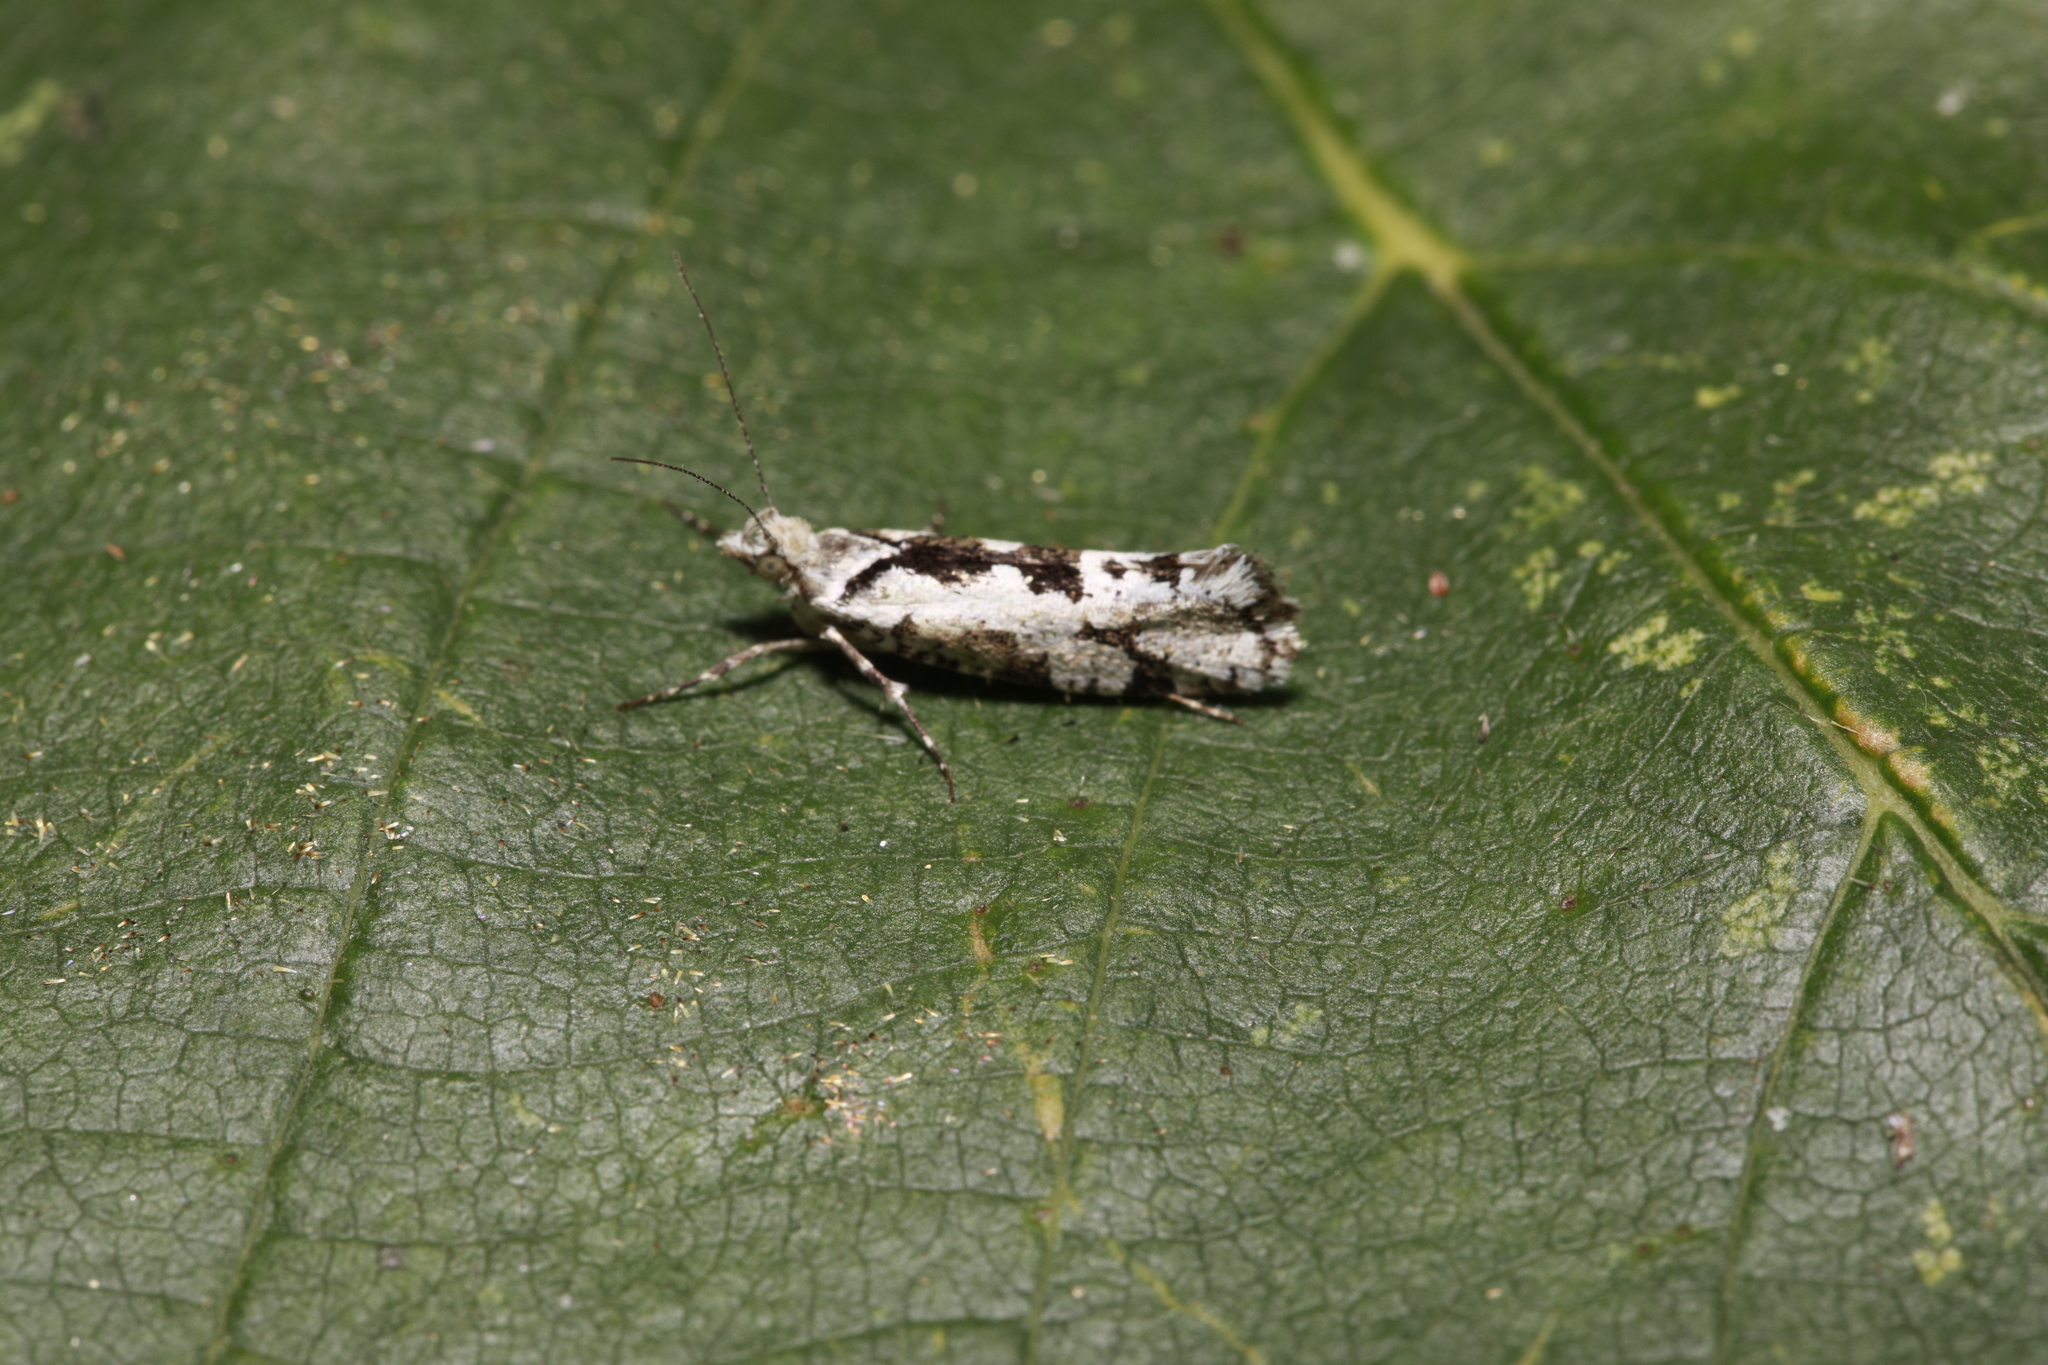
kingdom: Animalia
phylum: Arthropoda
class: Insecta
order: Lepidoptera
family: Plutellidae
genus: Ypsolophus
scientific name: Ypsolophus sequella
